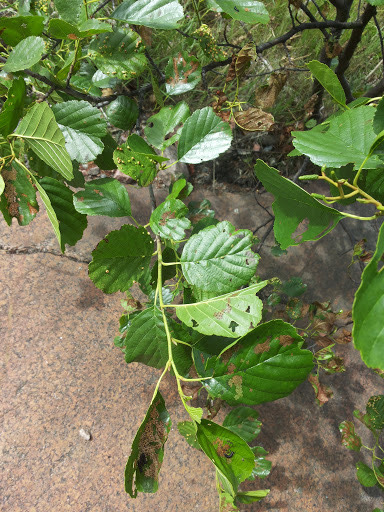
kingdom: Plantae
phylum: Tracheophyta
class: Magnoliopsida
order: Fagales
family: Betulaceae
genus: Alnus
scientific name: Alnus glutinosa
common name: Black alder
